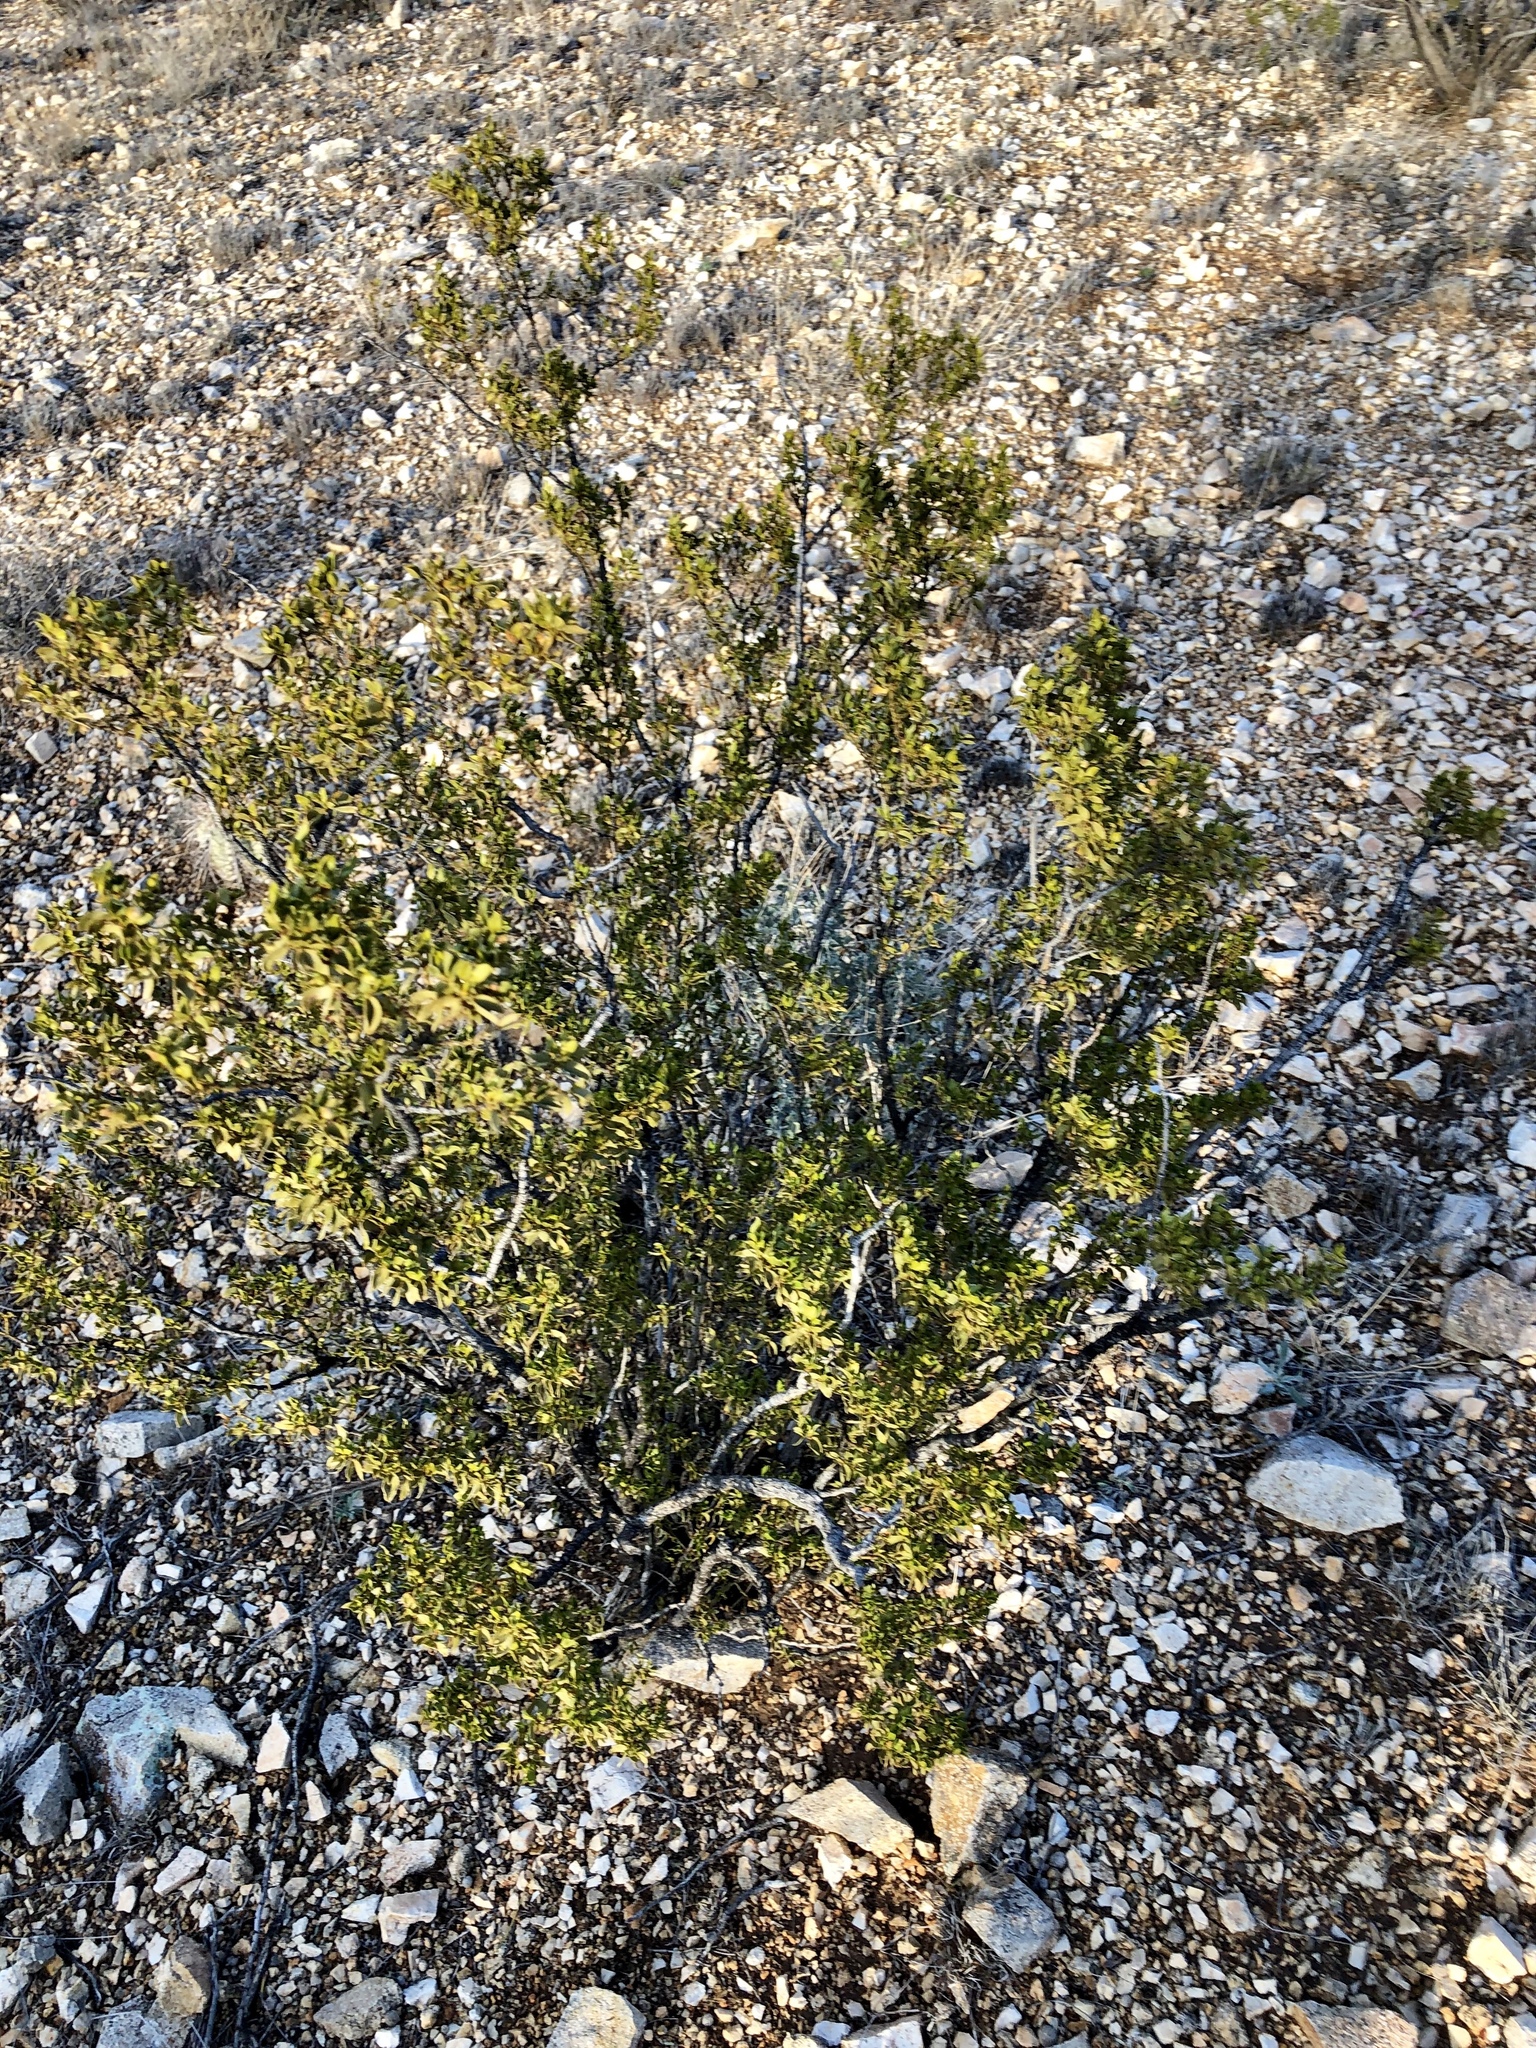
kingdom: Plantae
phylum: Tracheophyta
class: Magnoliopsida
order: Zygophyllales
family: Zygophyllaceae
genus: Larrea
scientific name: Larrea tridentata
